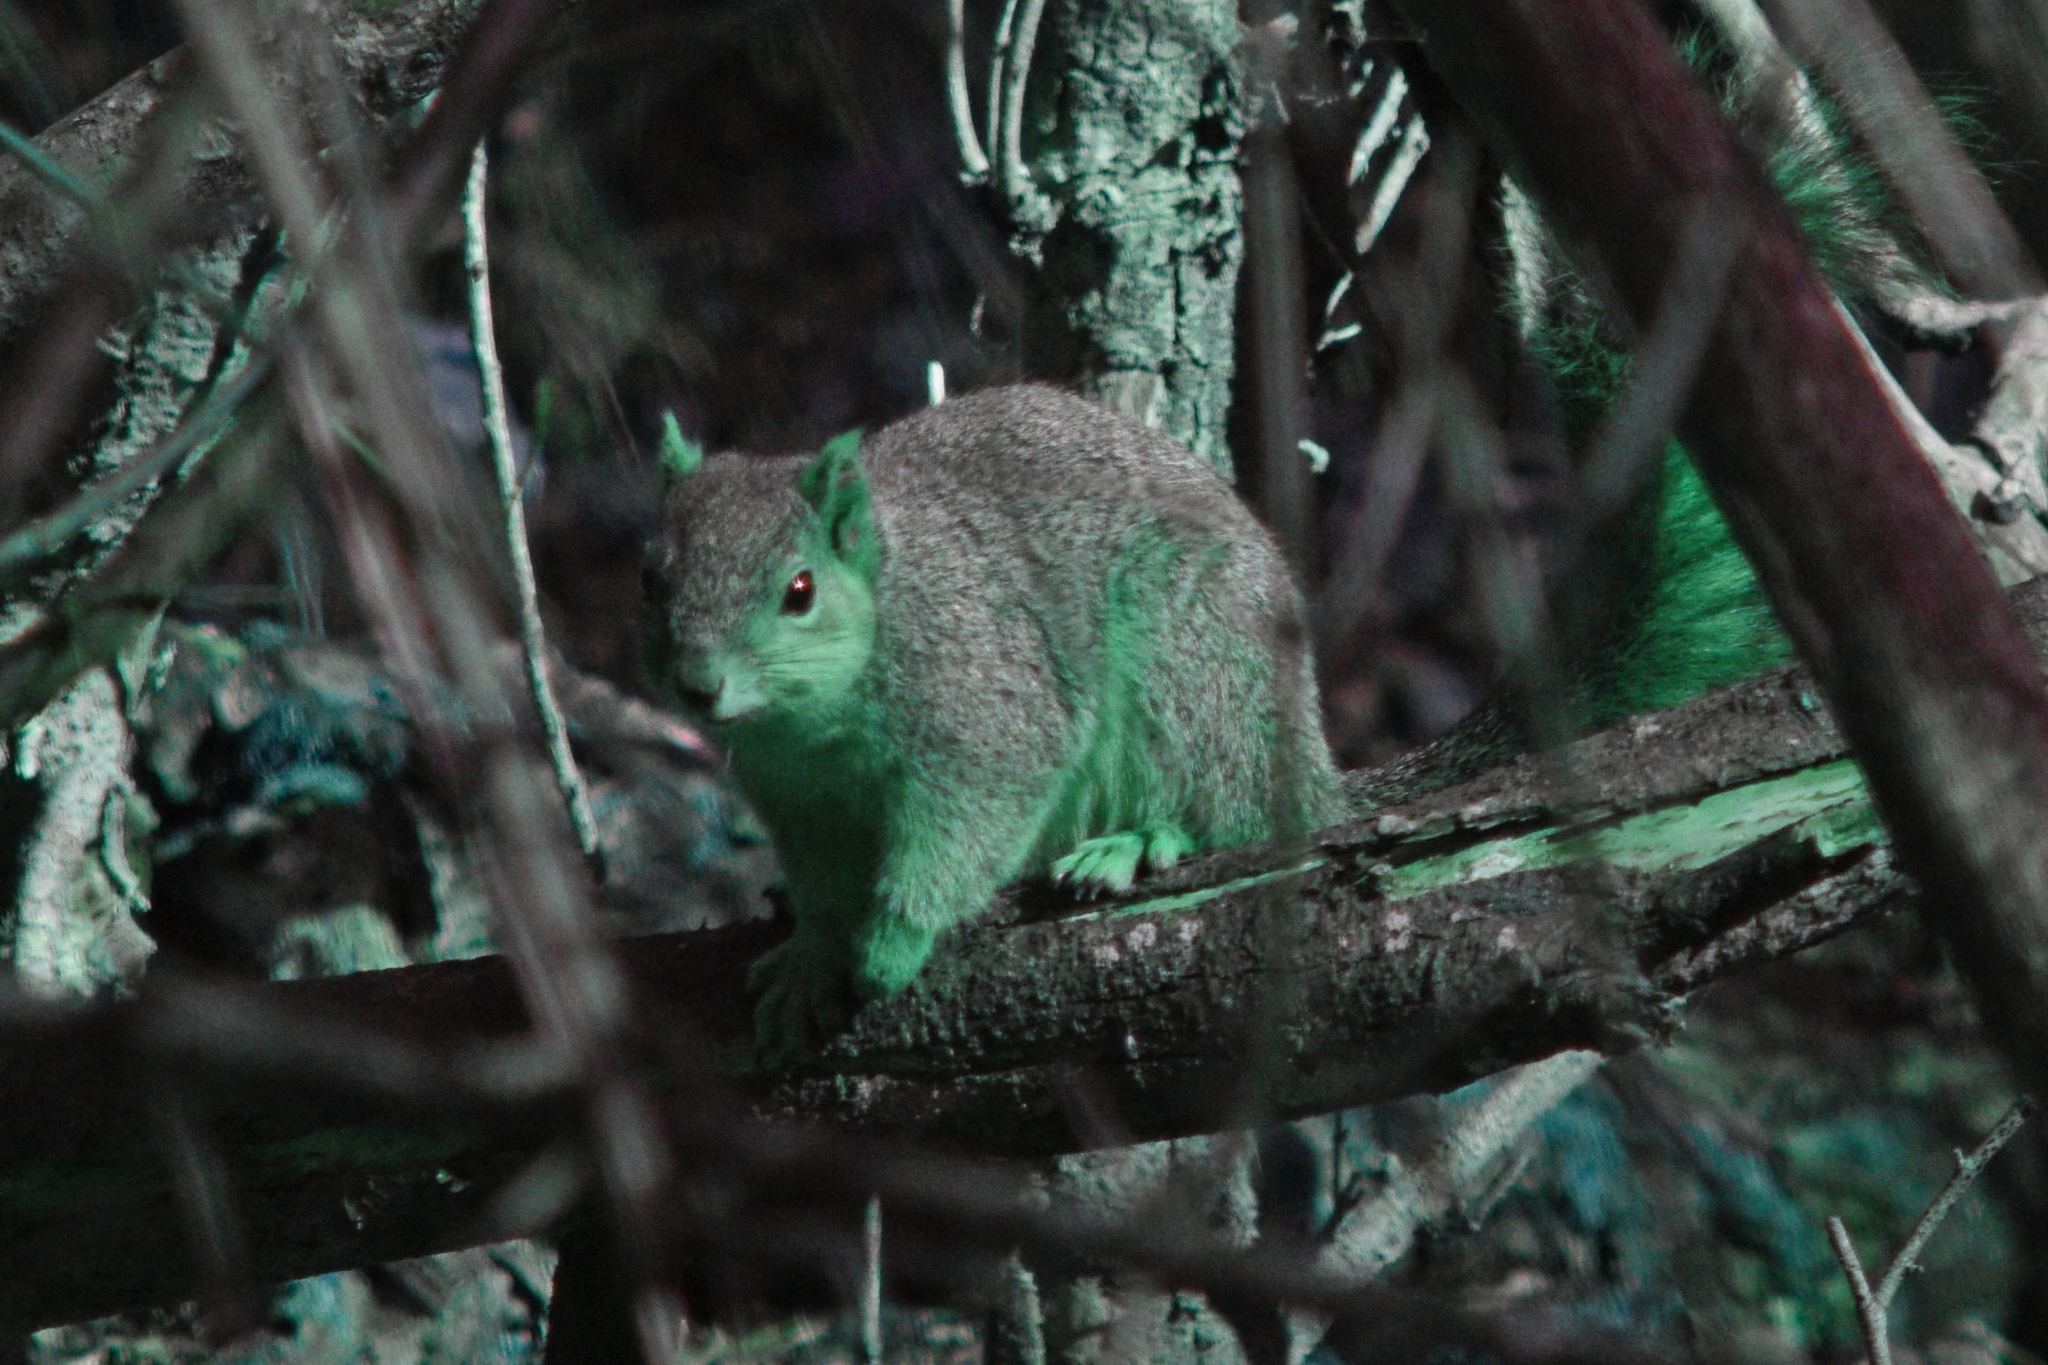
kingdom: Animalia
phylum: Chordata
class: Mammalia
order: Rodentia
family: Sciuridae
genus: Sciurus
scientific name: Sciurus niger
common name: Fox squirrel
